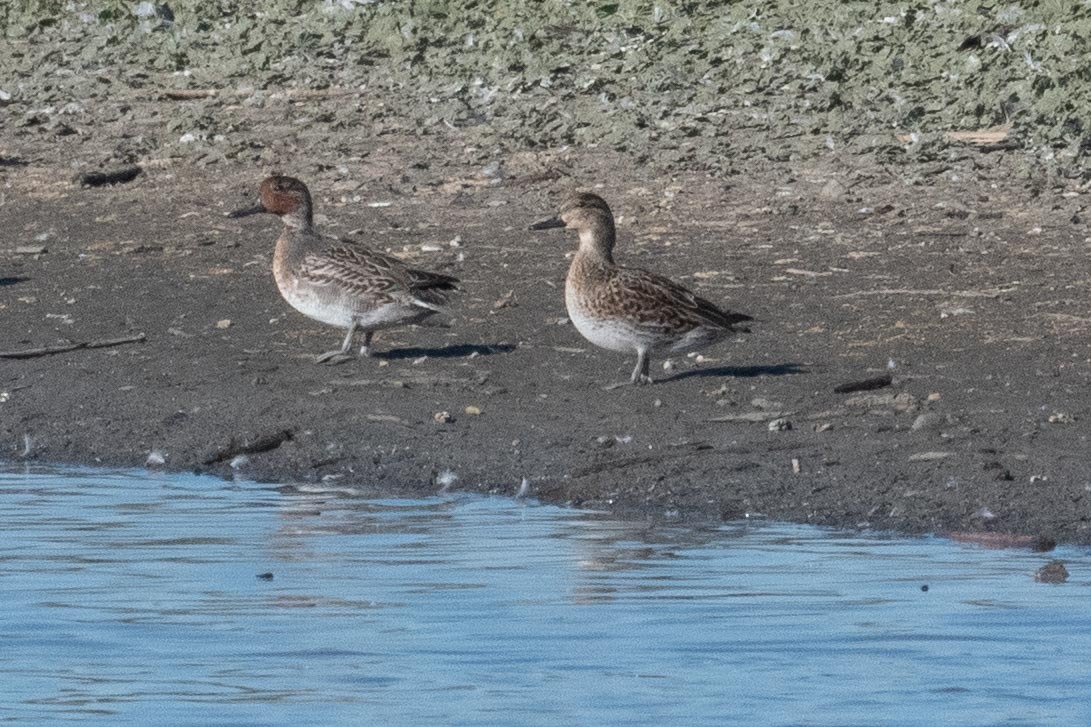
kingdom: Animalia
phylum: Chordata
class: Aves
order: Anseriformes
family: Anatidae
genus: Anas
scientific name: Anas crecca
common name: Eurasian teal
